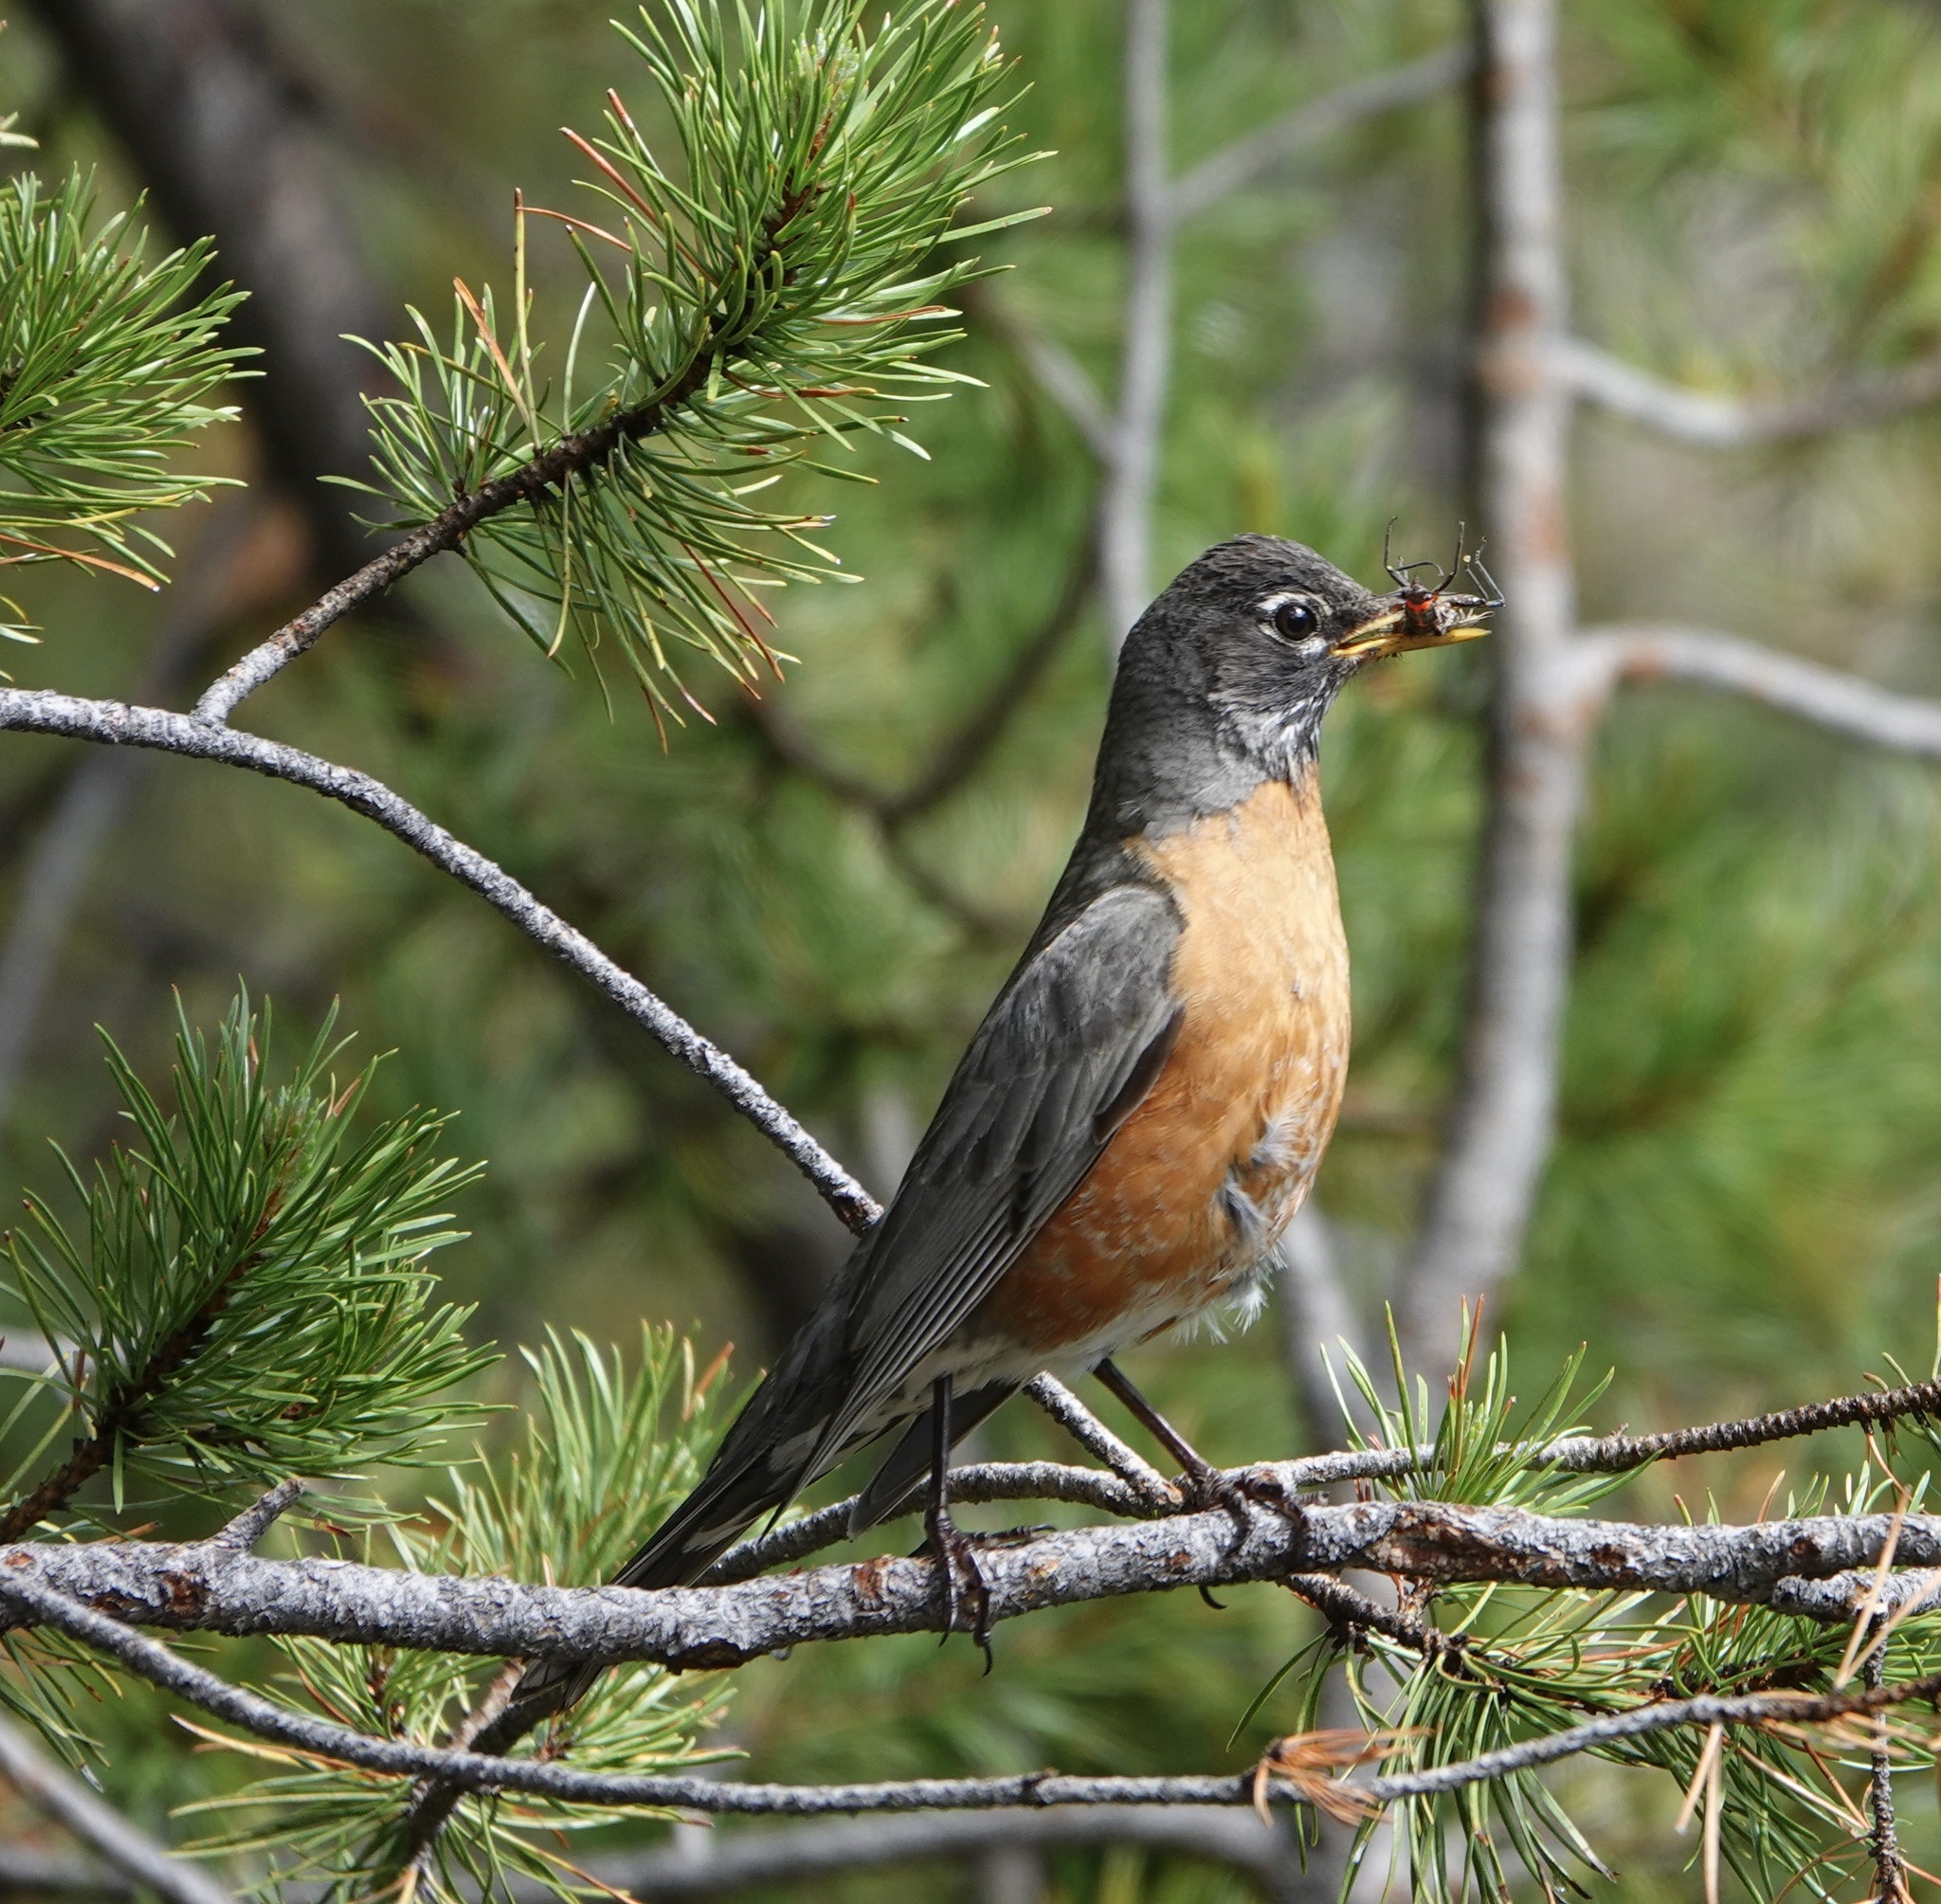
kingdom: Animalia
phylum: Chordata
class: Aves
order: Passeriformes
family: Turdidae
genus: Turdus
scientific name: Turdus migratorius
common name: American robin
